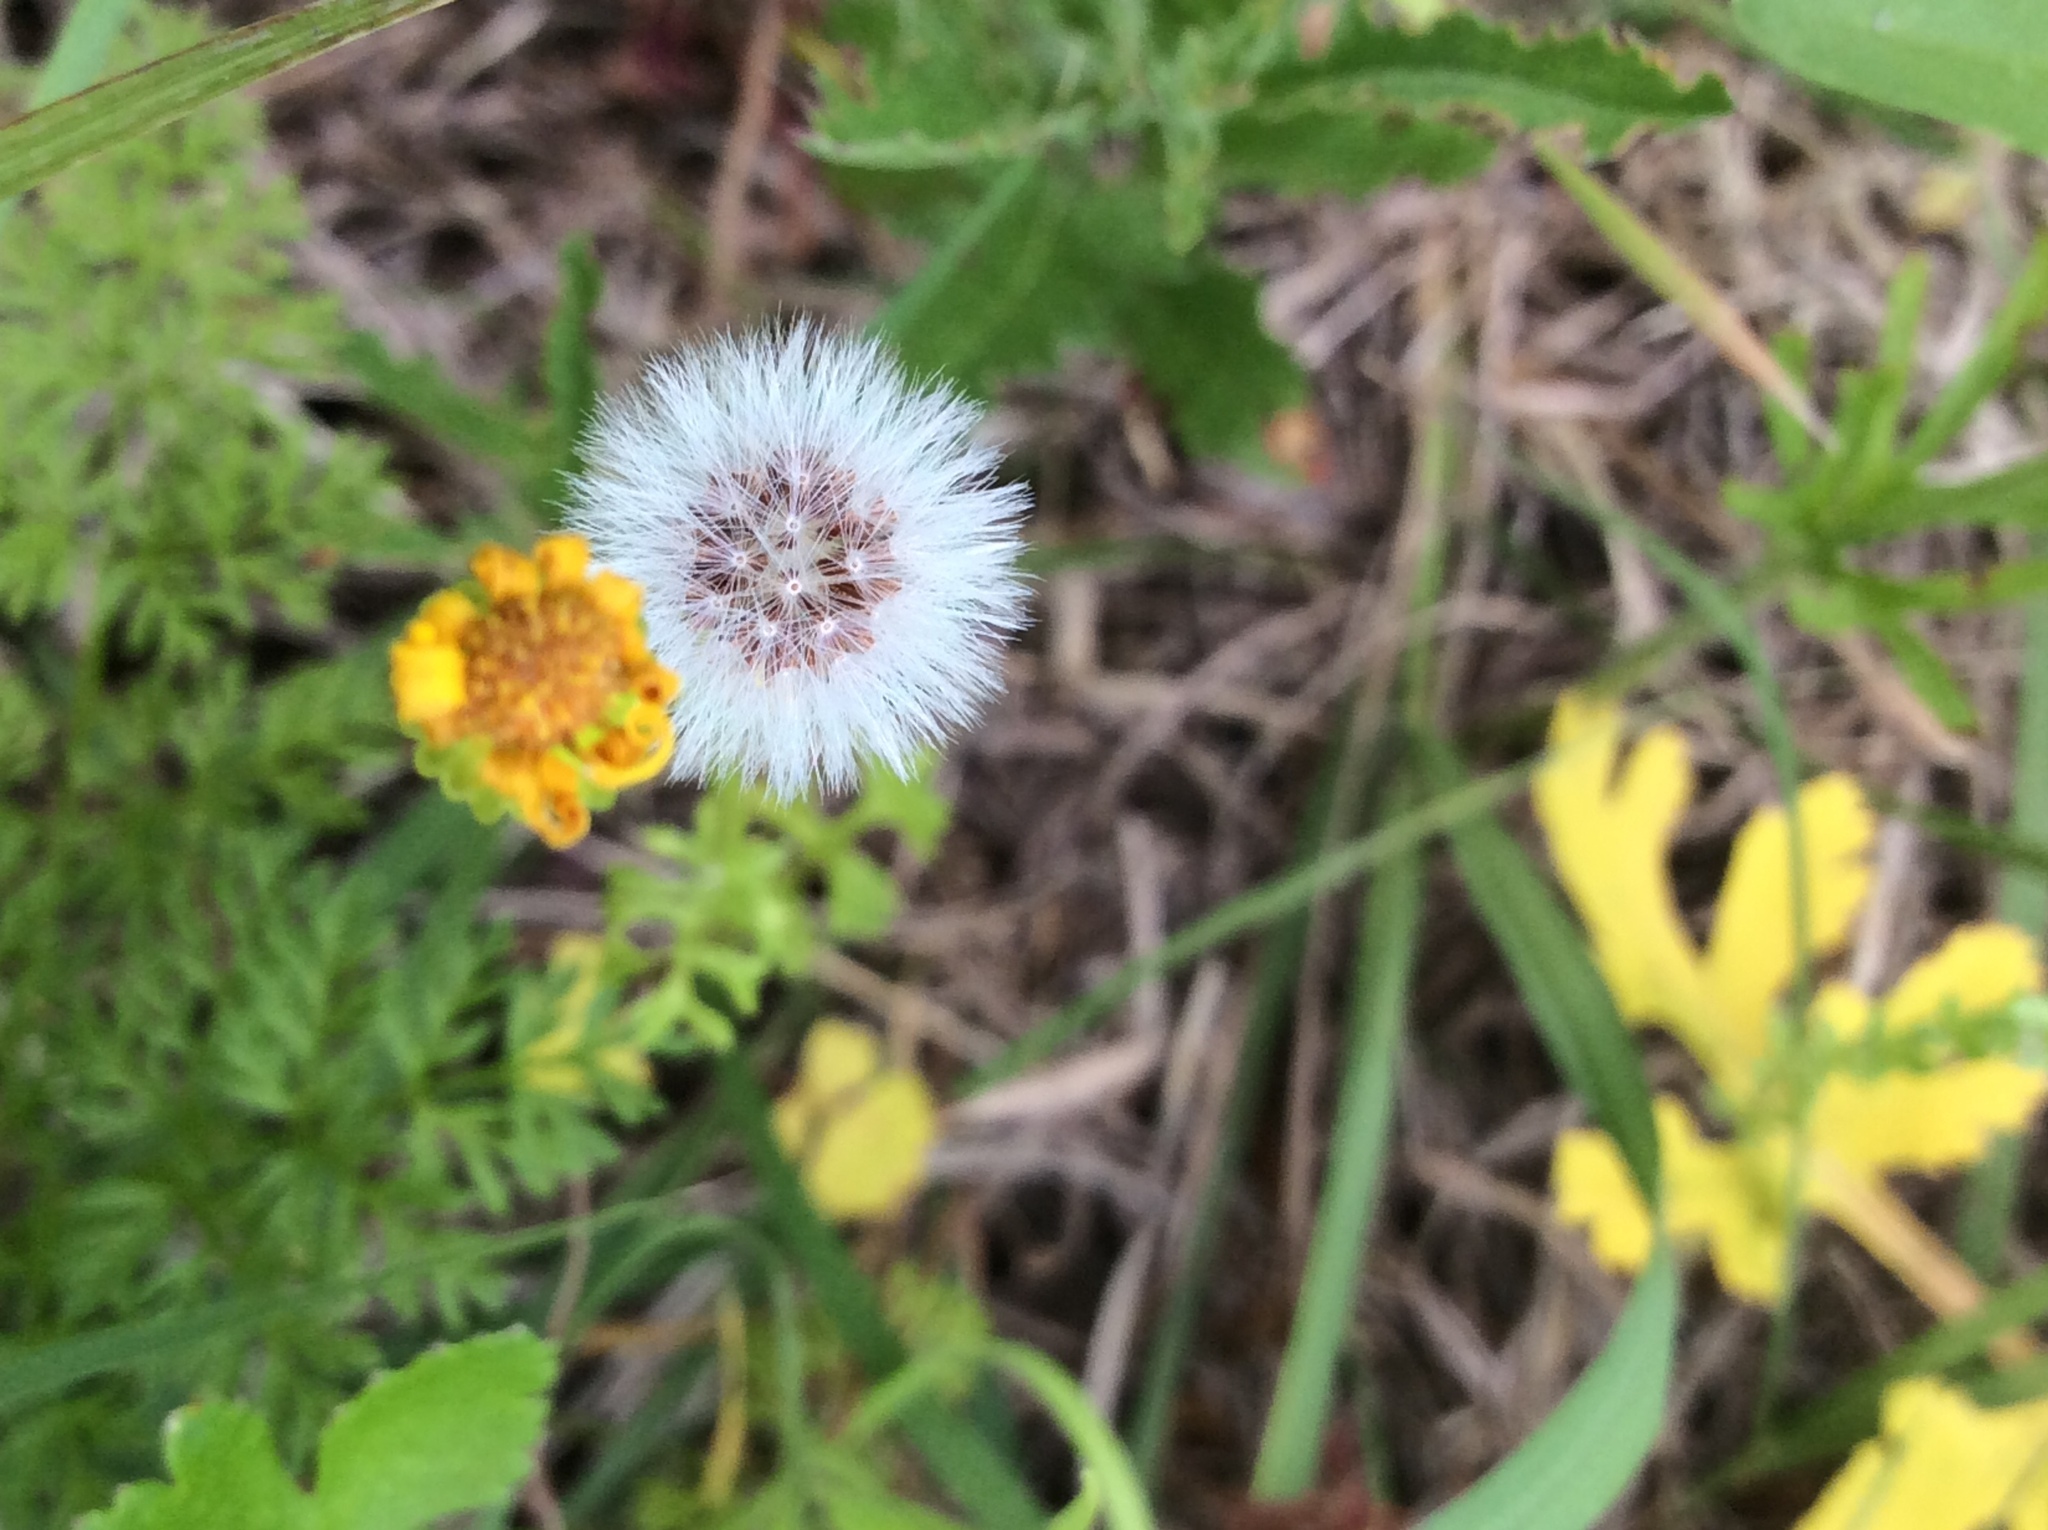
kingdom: Plantae
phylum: Tracheophyta
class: Magnoliopsida
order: Asterales
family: Asteraceae
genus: Packera
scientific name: Packera tampicana
